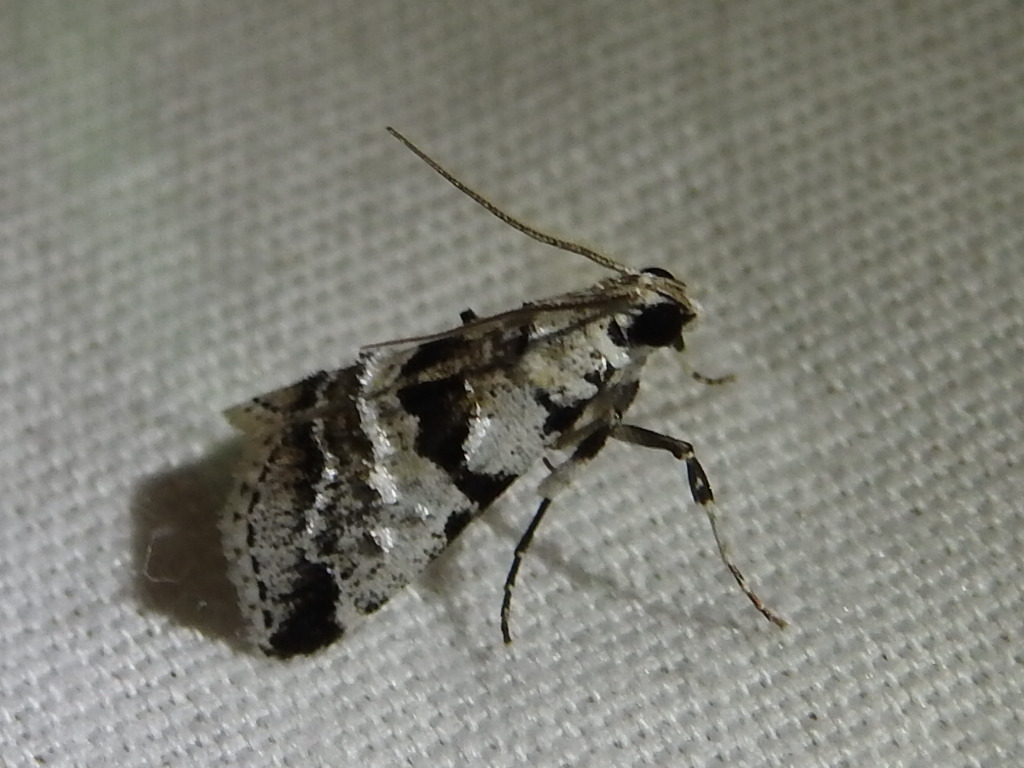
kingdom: Animalia
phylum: Arthropoda
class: Insecta
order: Lepidoptera
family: Pyralidae
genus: Tallula
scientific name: Tallula atrifascialis
